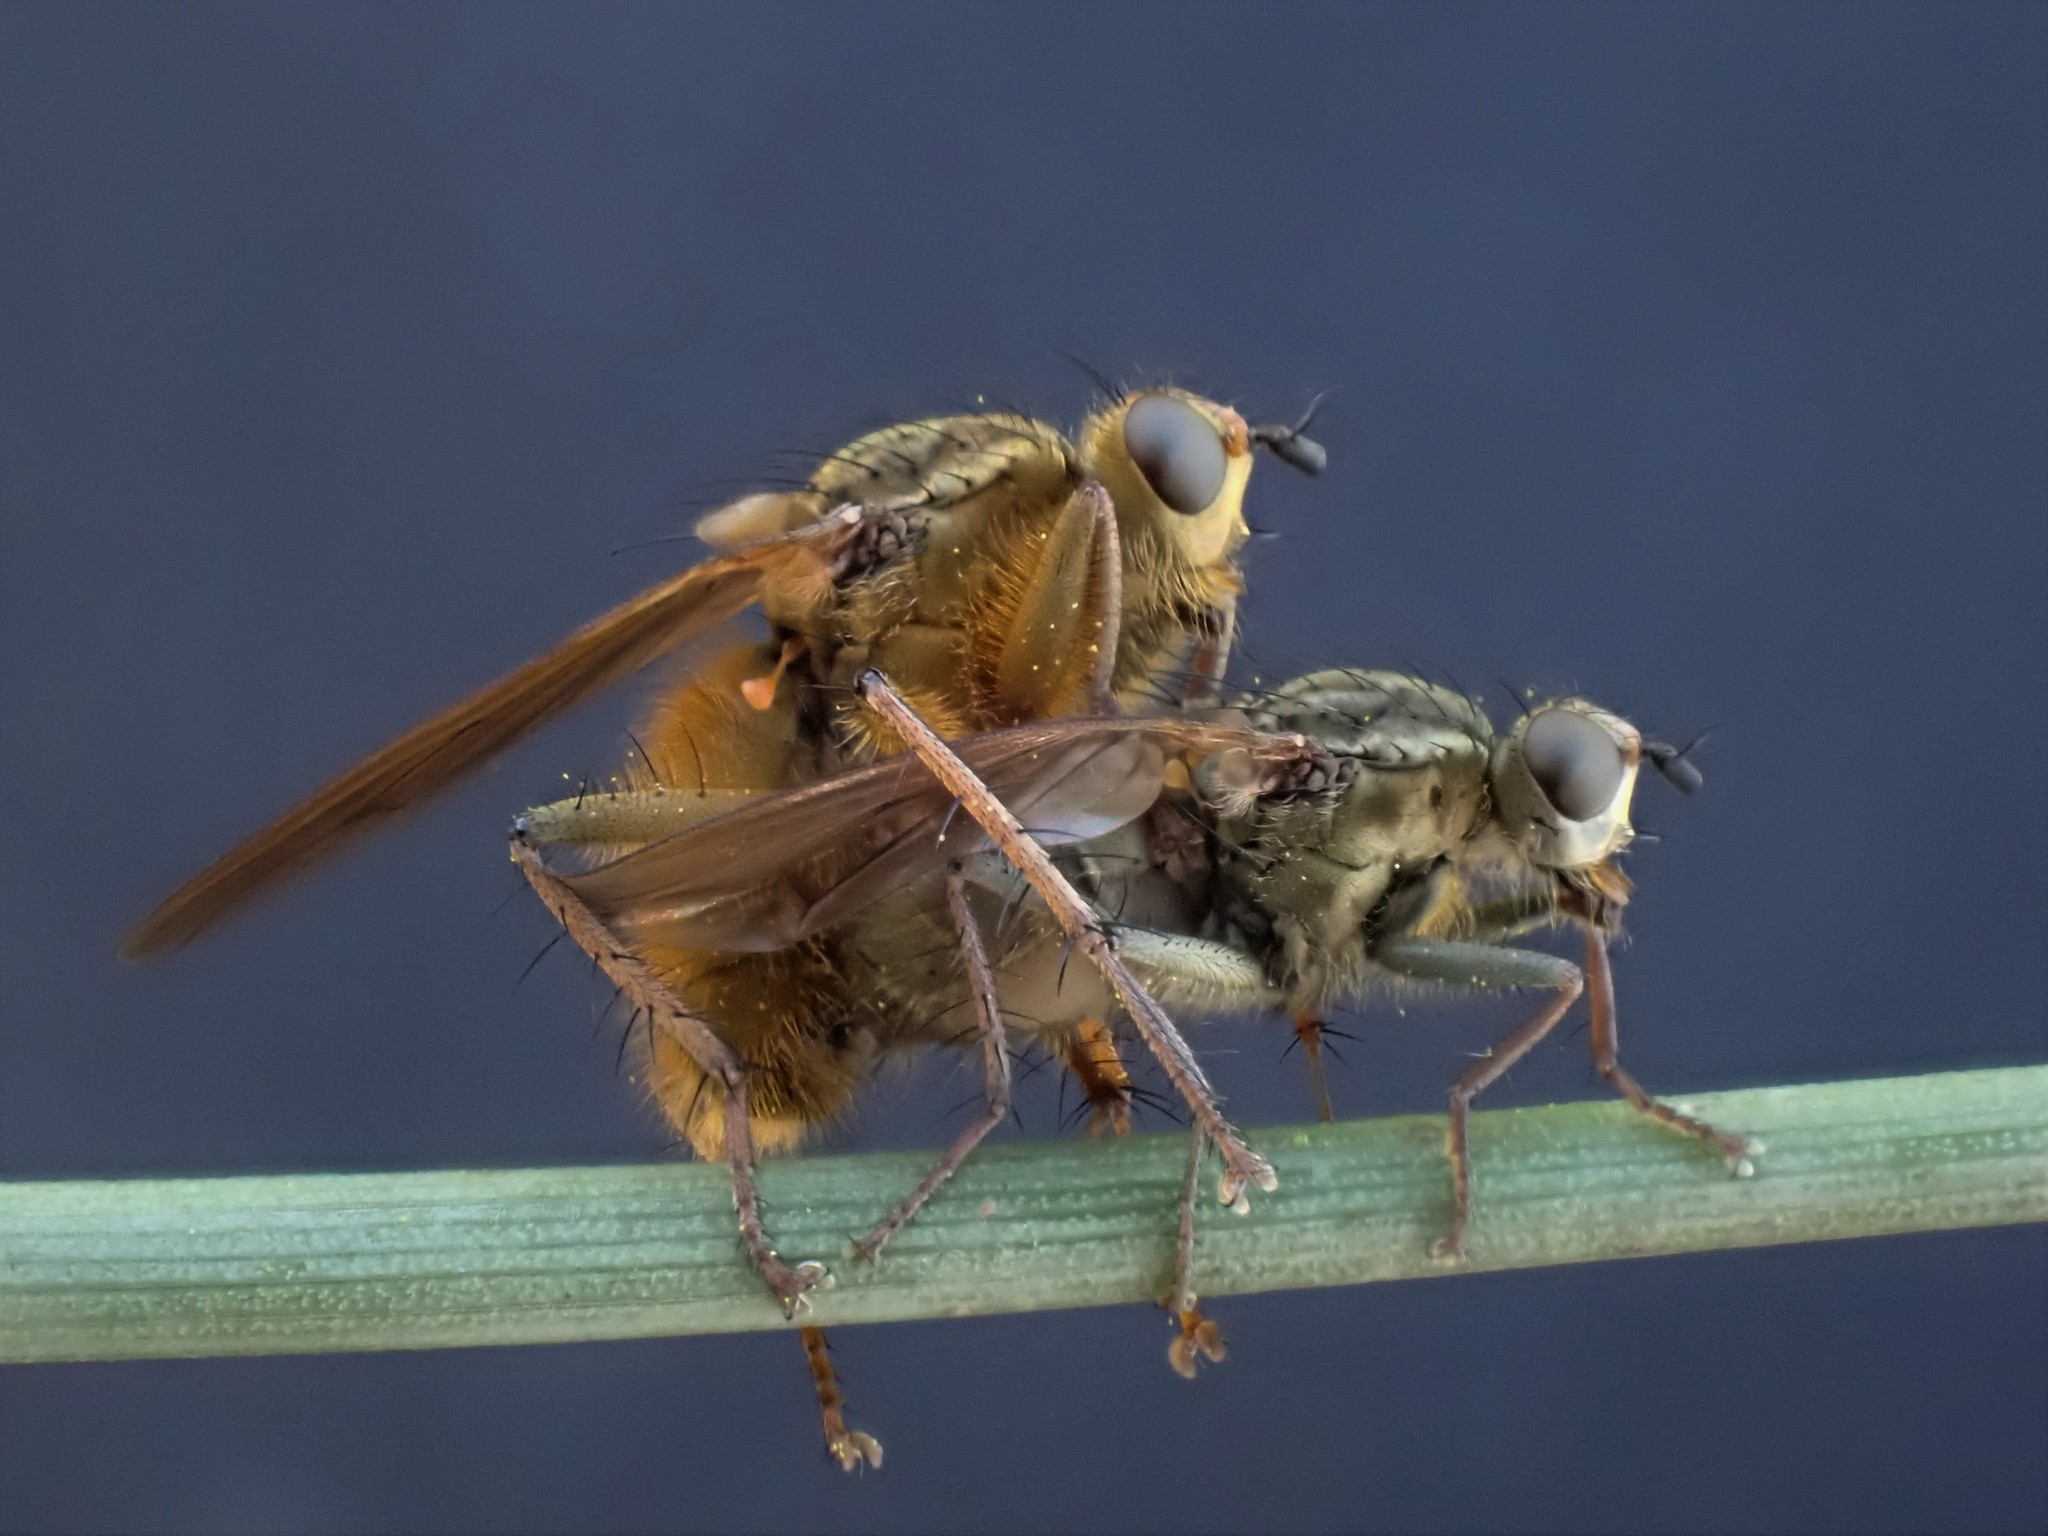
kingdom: Animalia
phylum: Arthropoda
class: Insecta
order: Diptera
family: Scathophagidae
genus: Scathophaga
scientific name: Scathophaga stercoraria
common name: Yellow dung fly
